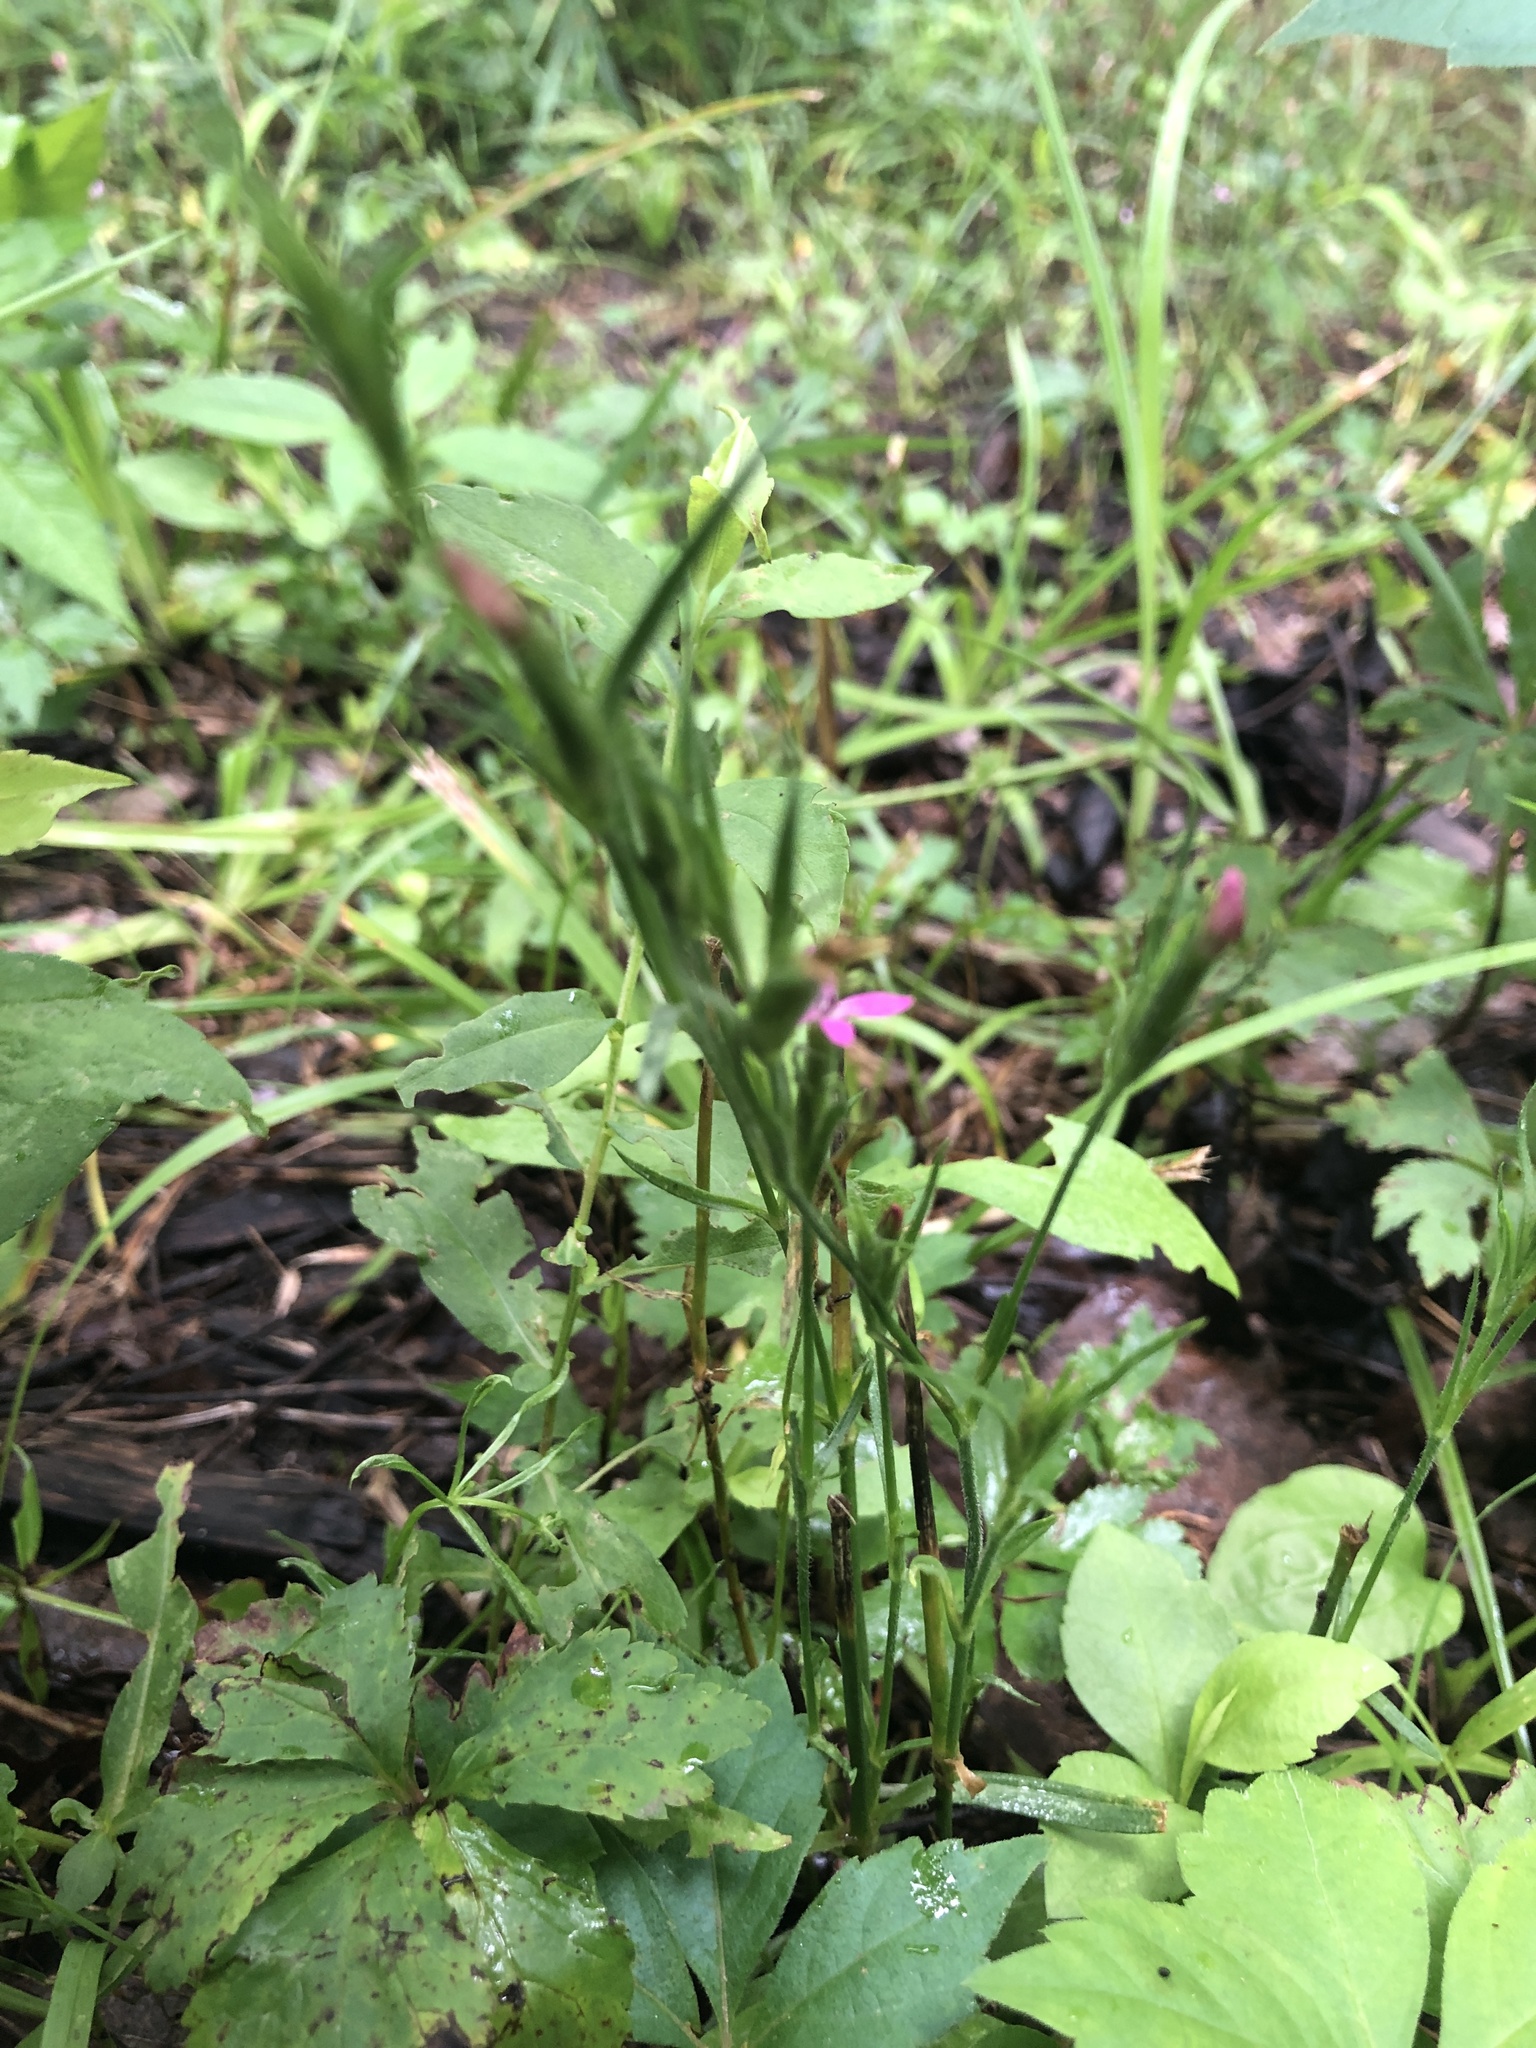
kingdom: Plantae
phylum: Tracheophyta
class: Magnoliopsida
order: Caryophyllales
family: Caryophyllaceae
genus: Dianthus
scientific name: Dianthus armeria
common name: Deptford pink
